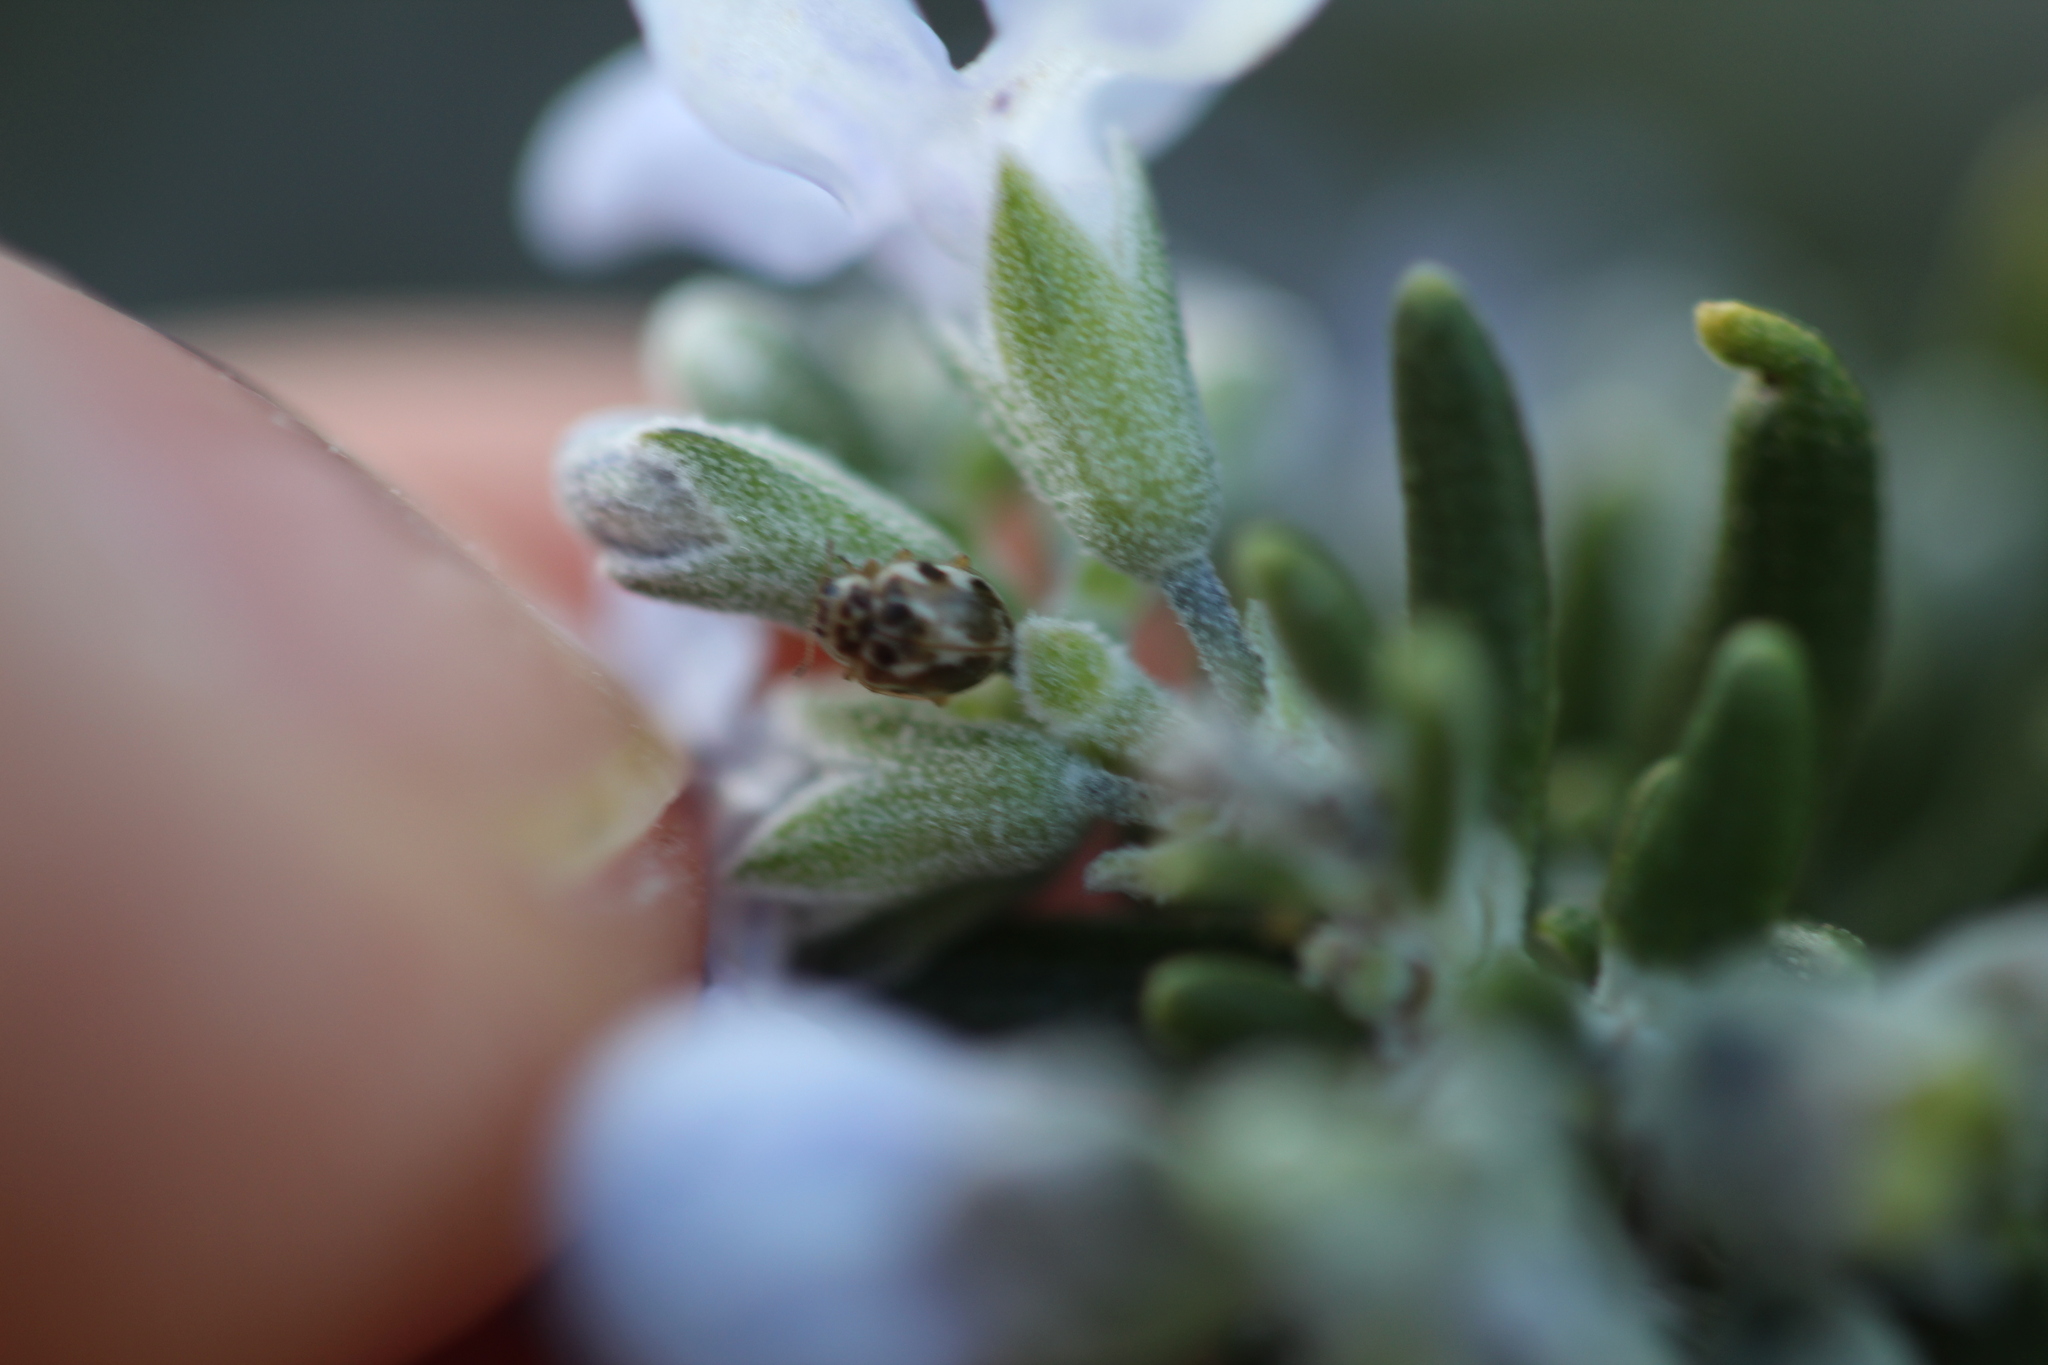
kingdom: Animalia
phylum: Arthropoda
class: Insecta
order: Coleoptera
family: Coccinellidae
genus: Psyllobora
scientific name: Psyllobora vigintimaculata
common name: Ladybird beetle
